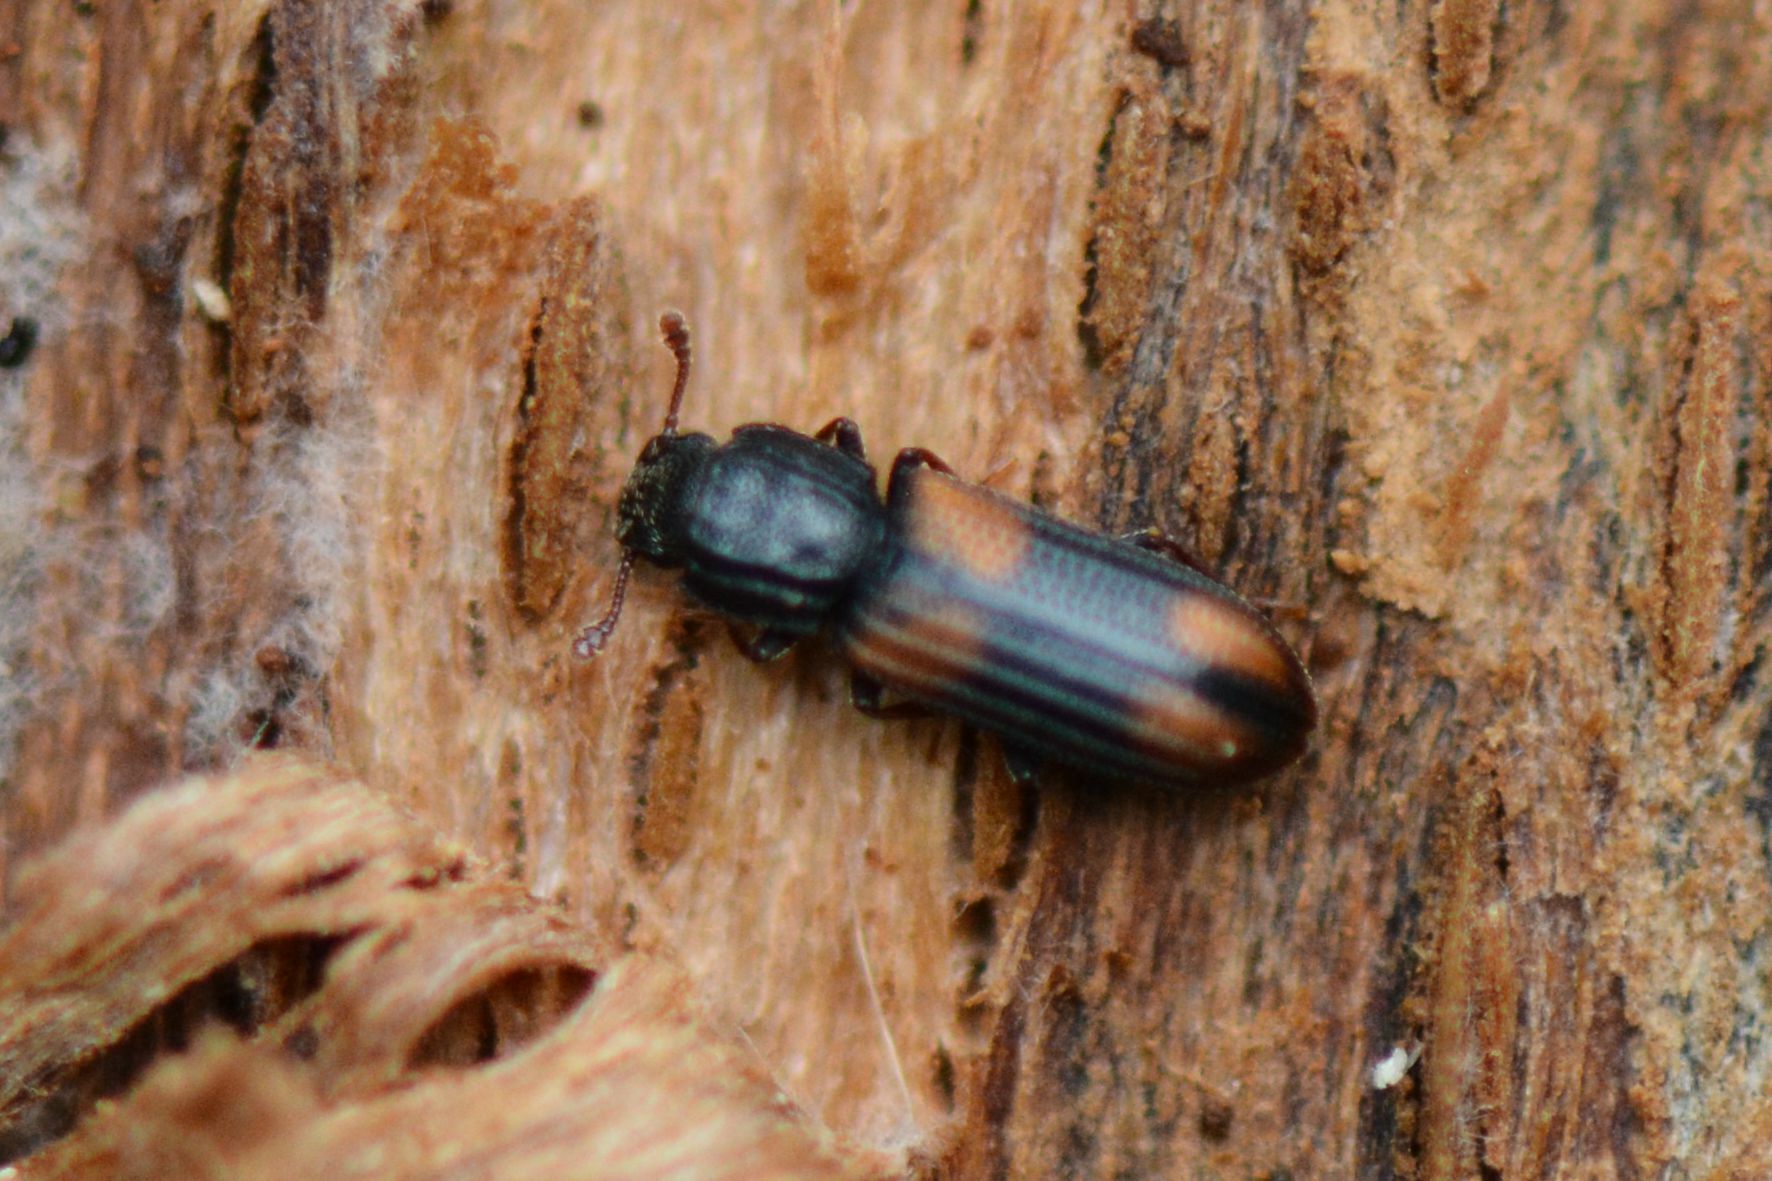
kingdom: Animalia
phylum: Arthropoda
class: Insecta
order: Coleoptera
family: Zopheridae
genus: Bitoma
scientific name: Bitoma crenata
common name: Bark beetle
